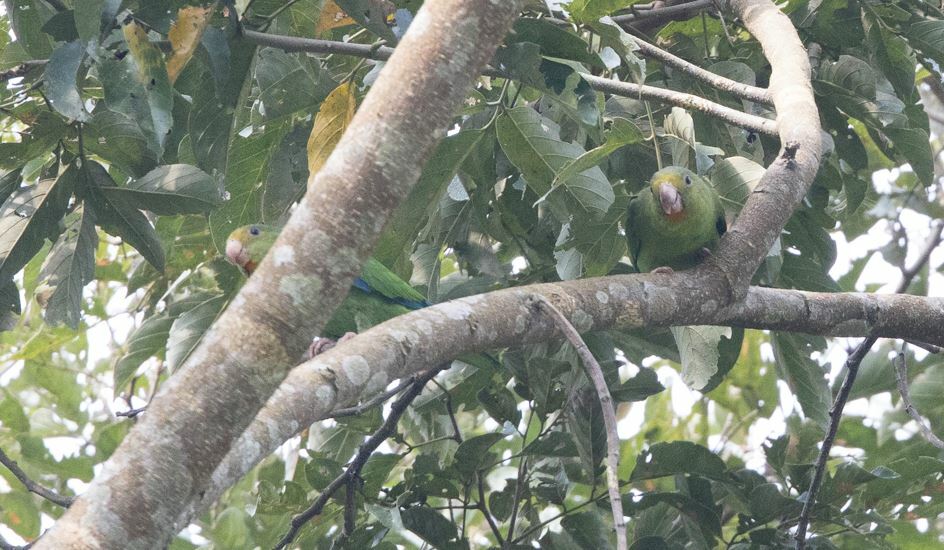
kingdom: Animalia
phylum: Chordata
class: Aves
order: Psittaciformes
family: Psittacidae
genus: Brotogeris
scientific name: Brotogeris cyanoptera
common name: Cobalt-winged parakeet
